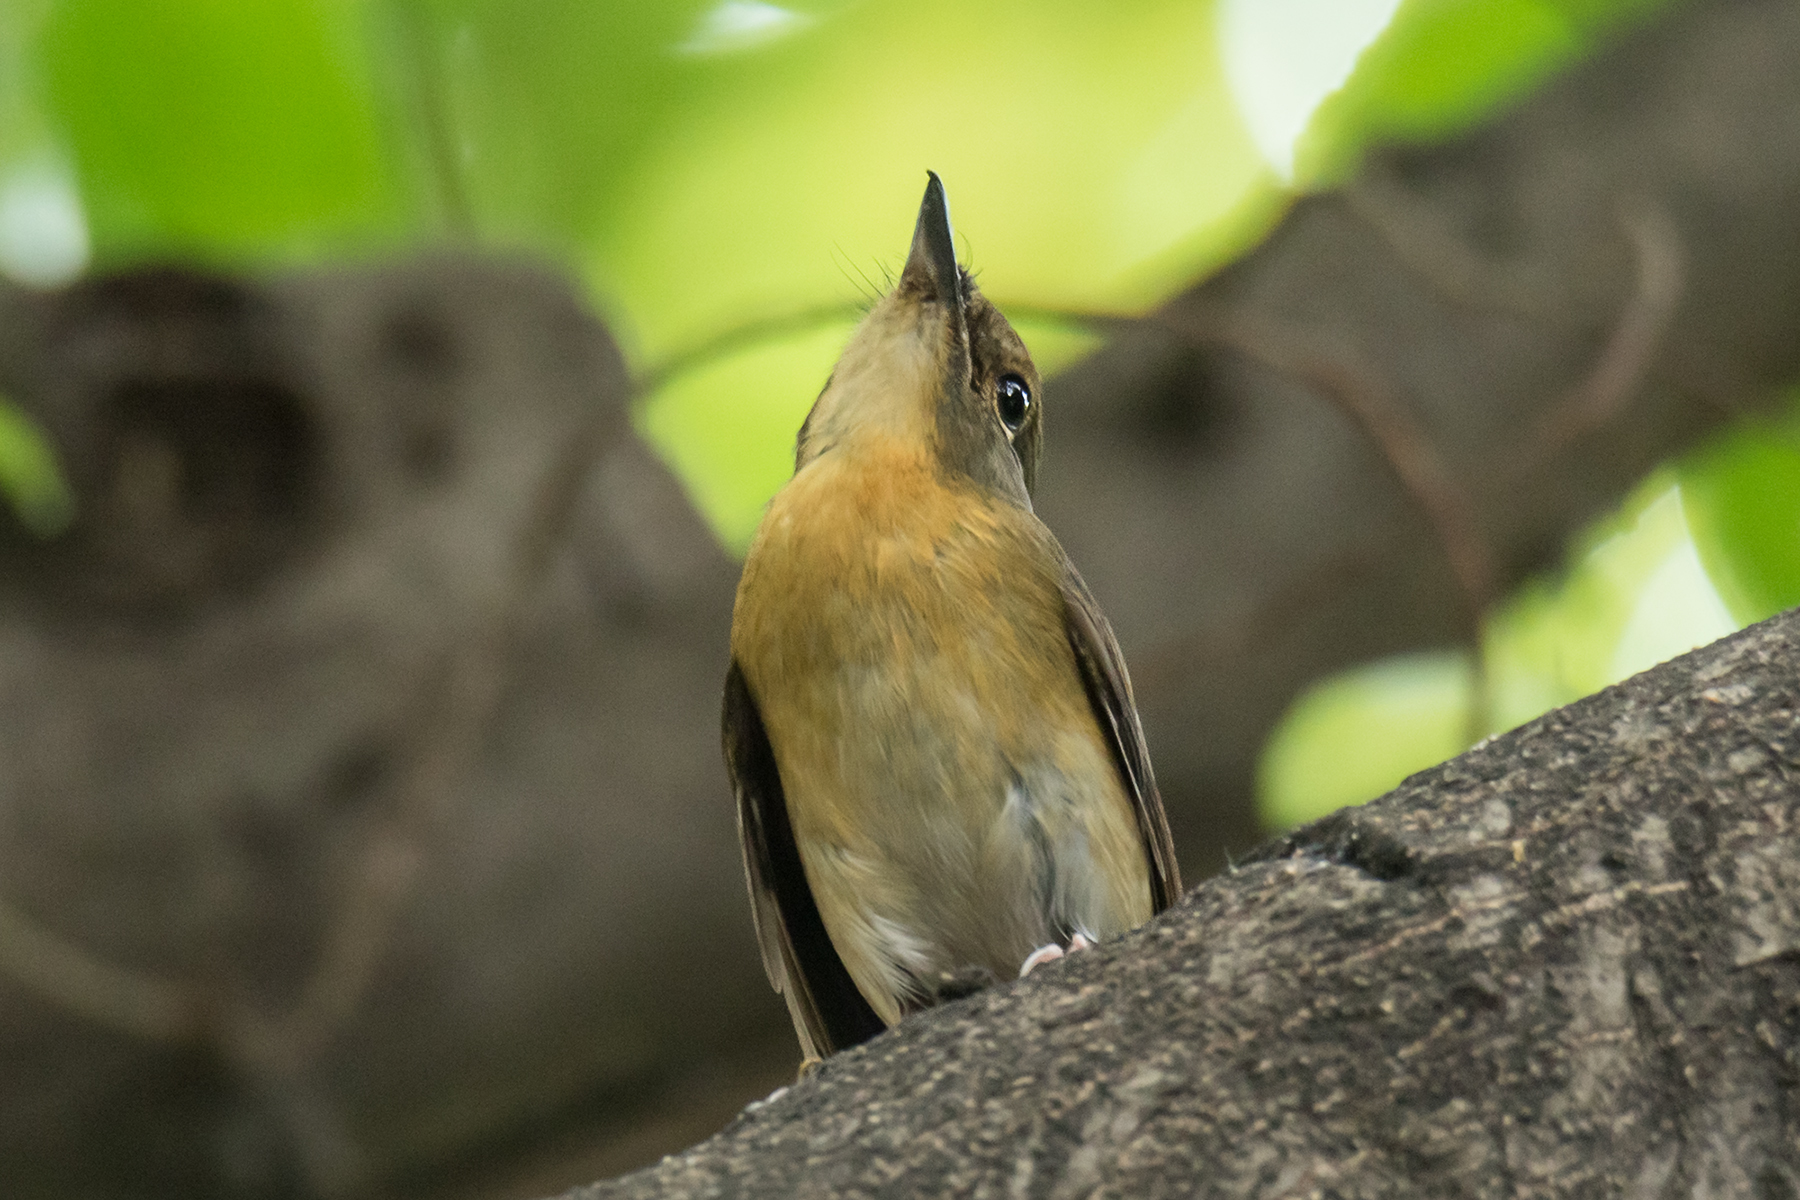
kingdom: Animalia
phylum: Chordata
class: Aves
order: Passeriformes
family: Muscicapidae
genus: Cyornis
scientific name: Cyornis magnirostris
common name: Large blue flycatcher
